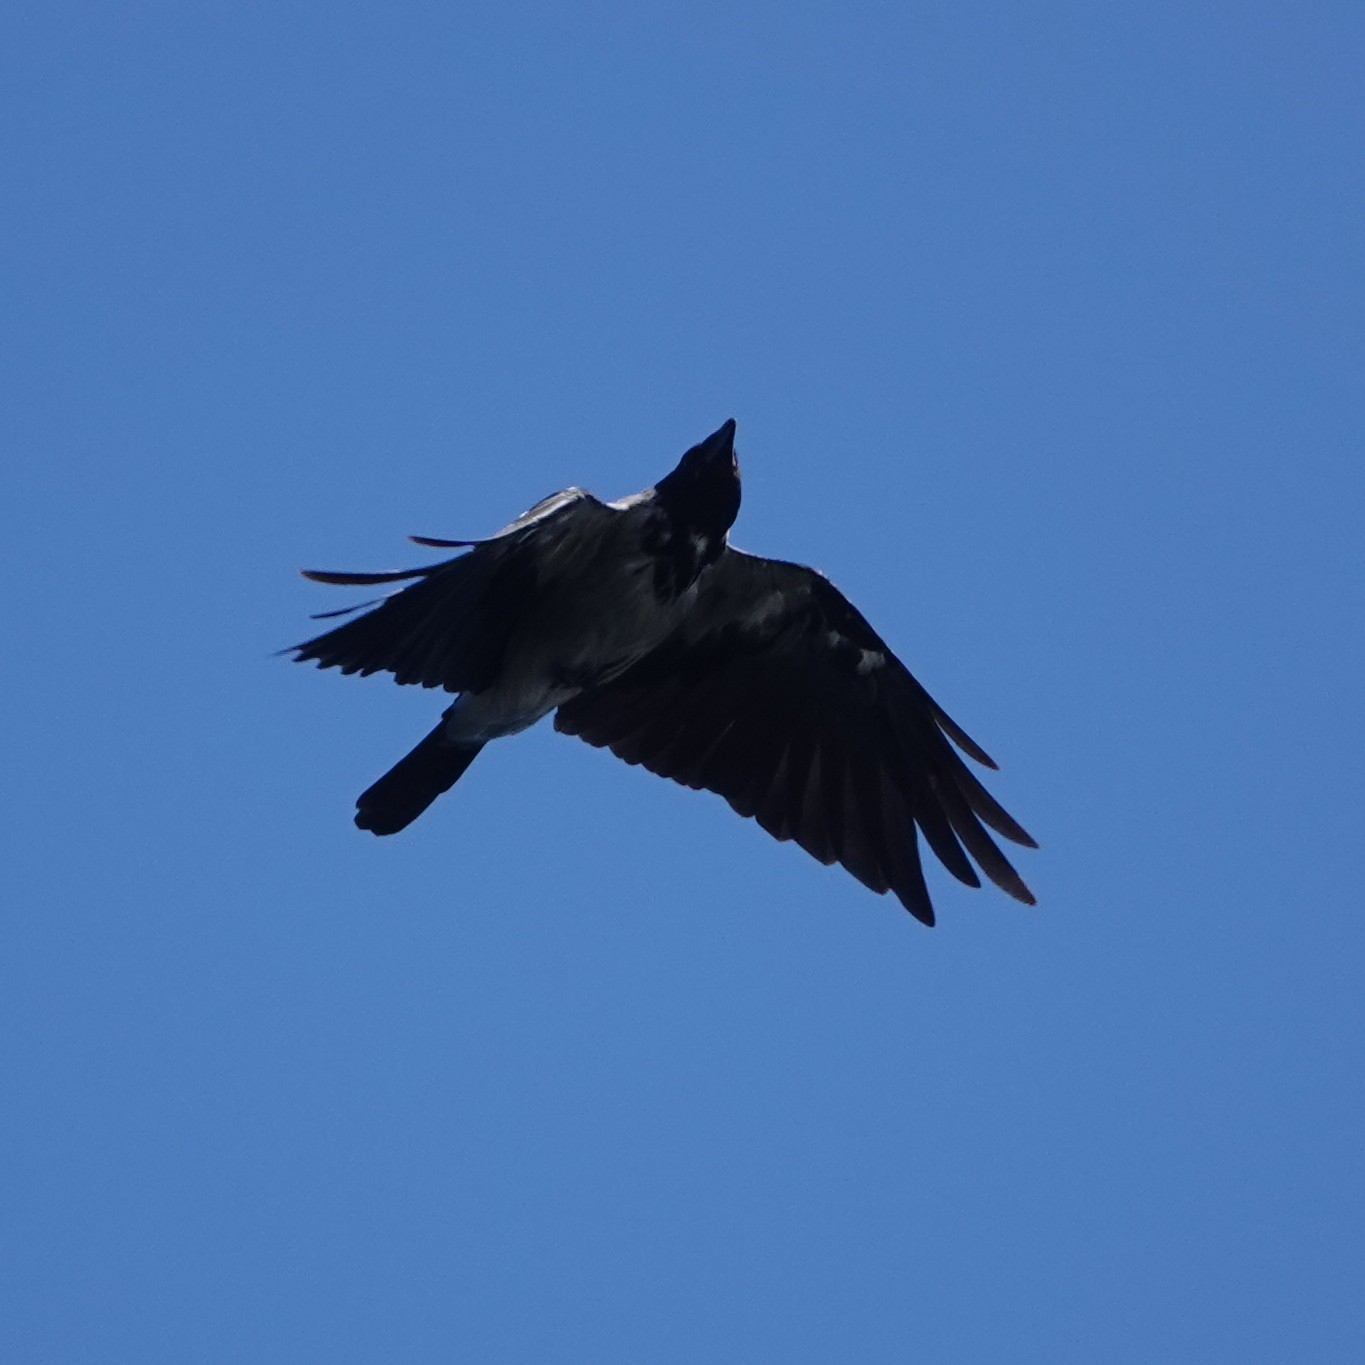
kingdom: Animalia
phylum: Chordata
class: Aves
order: Passeriformes
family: Corvidae
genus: Corvus
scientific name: Corvus cornix
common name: Hooded crow
